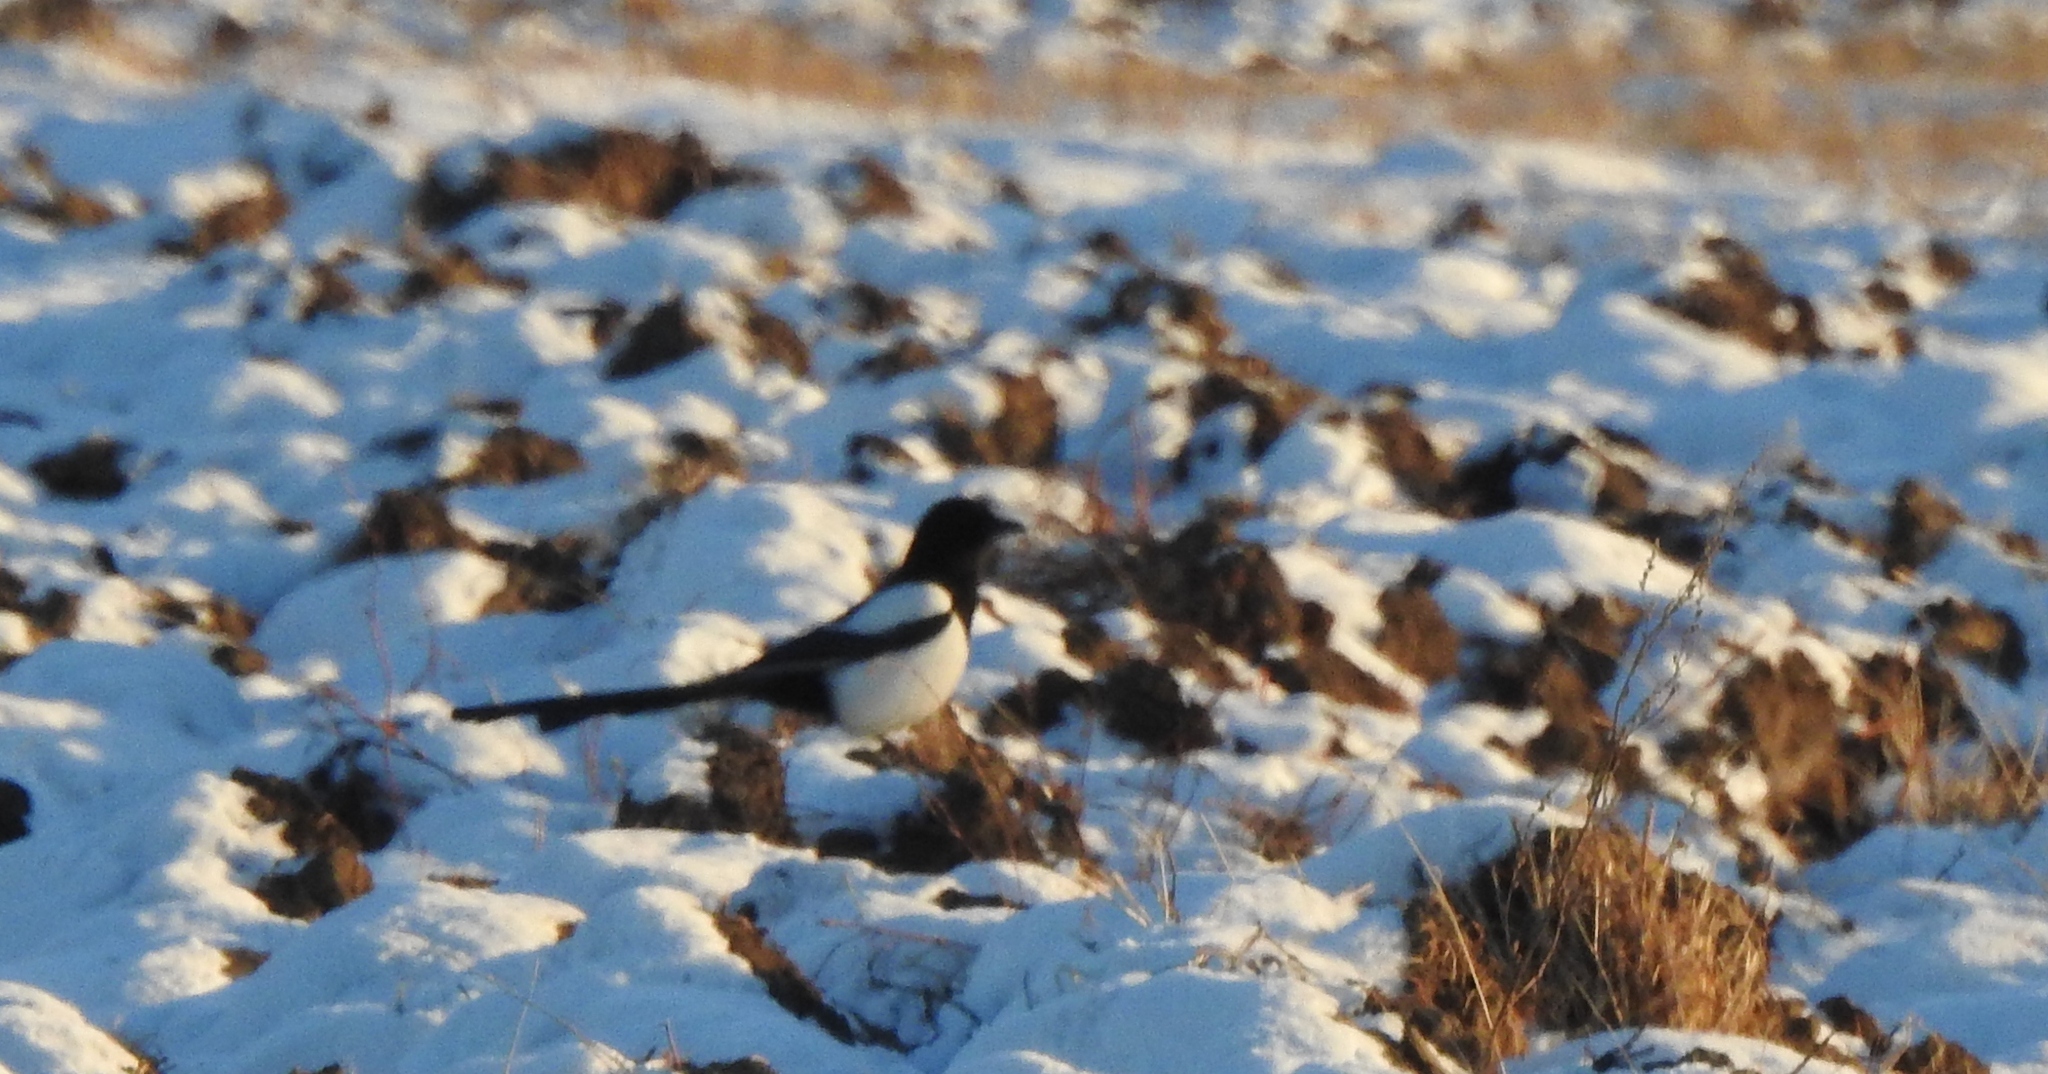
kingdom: Animalia
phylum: Chordata
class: Aves
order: Passeriformes
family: Corvidae
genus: Pica
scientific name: Pica pica
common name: Eurasian magpie
